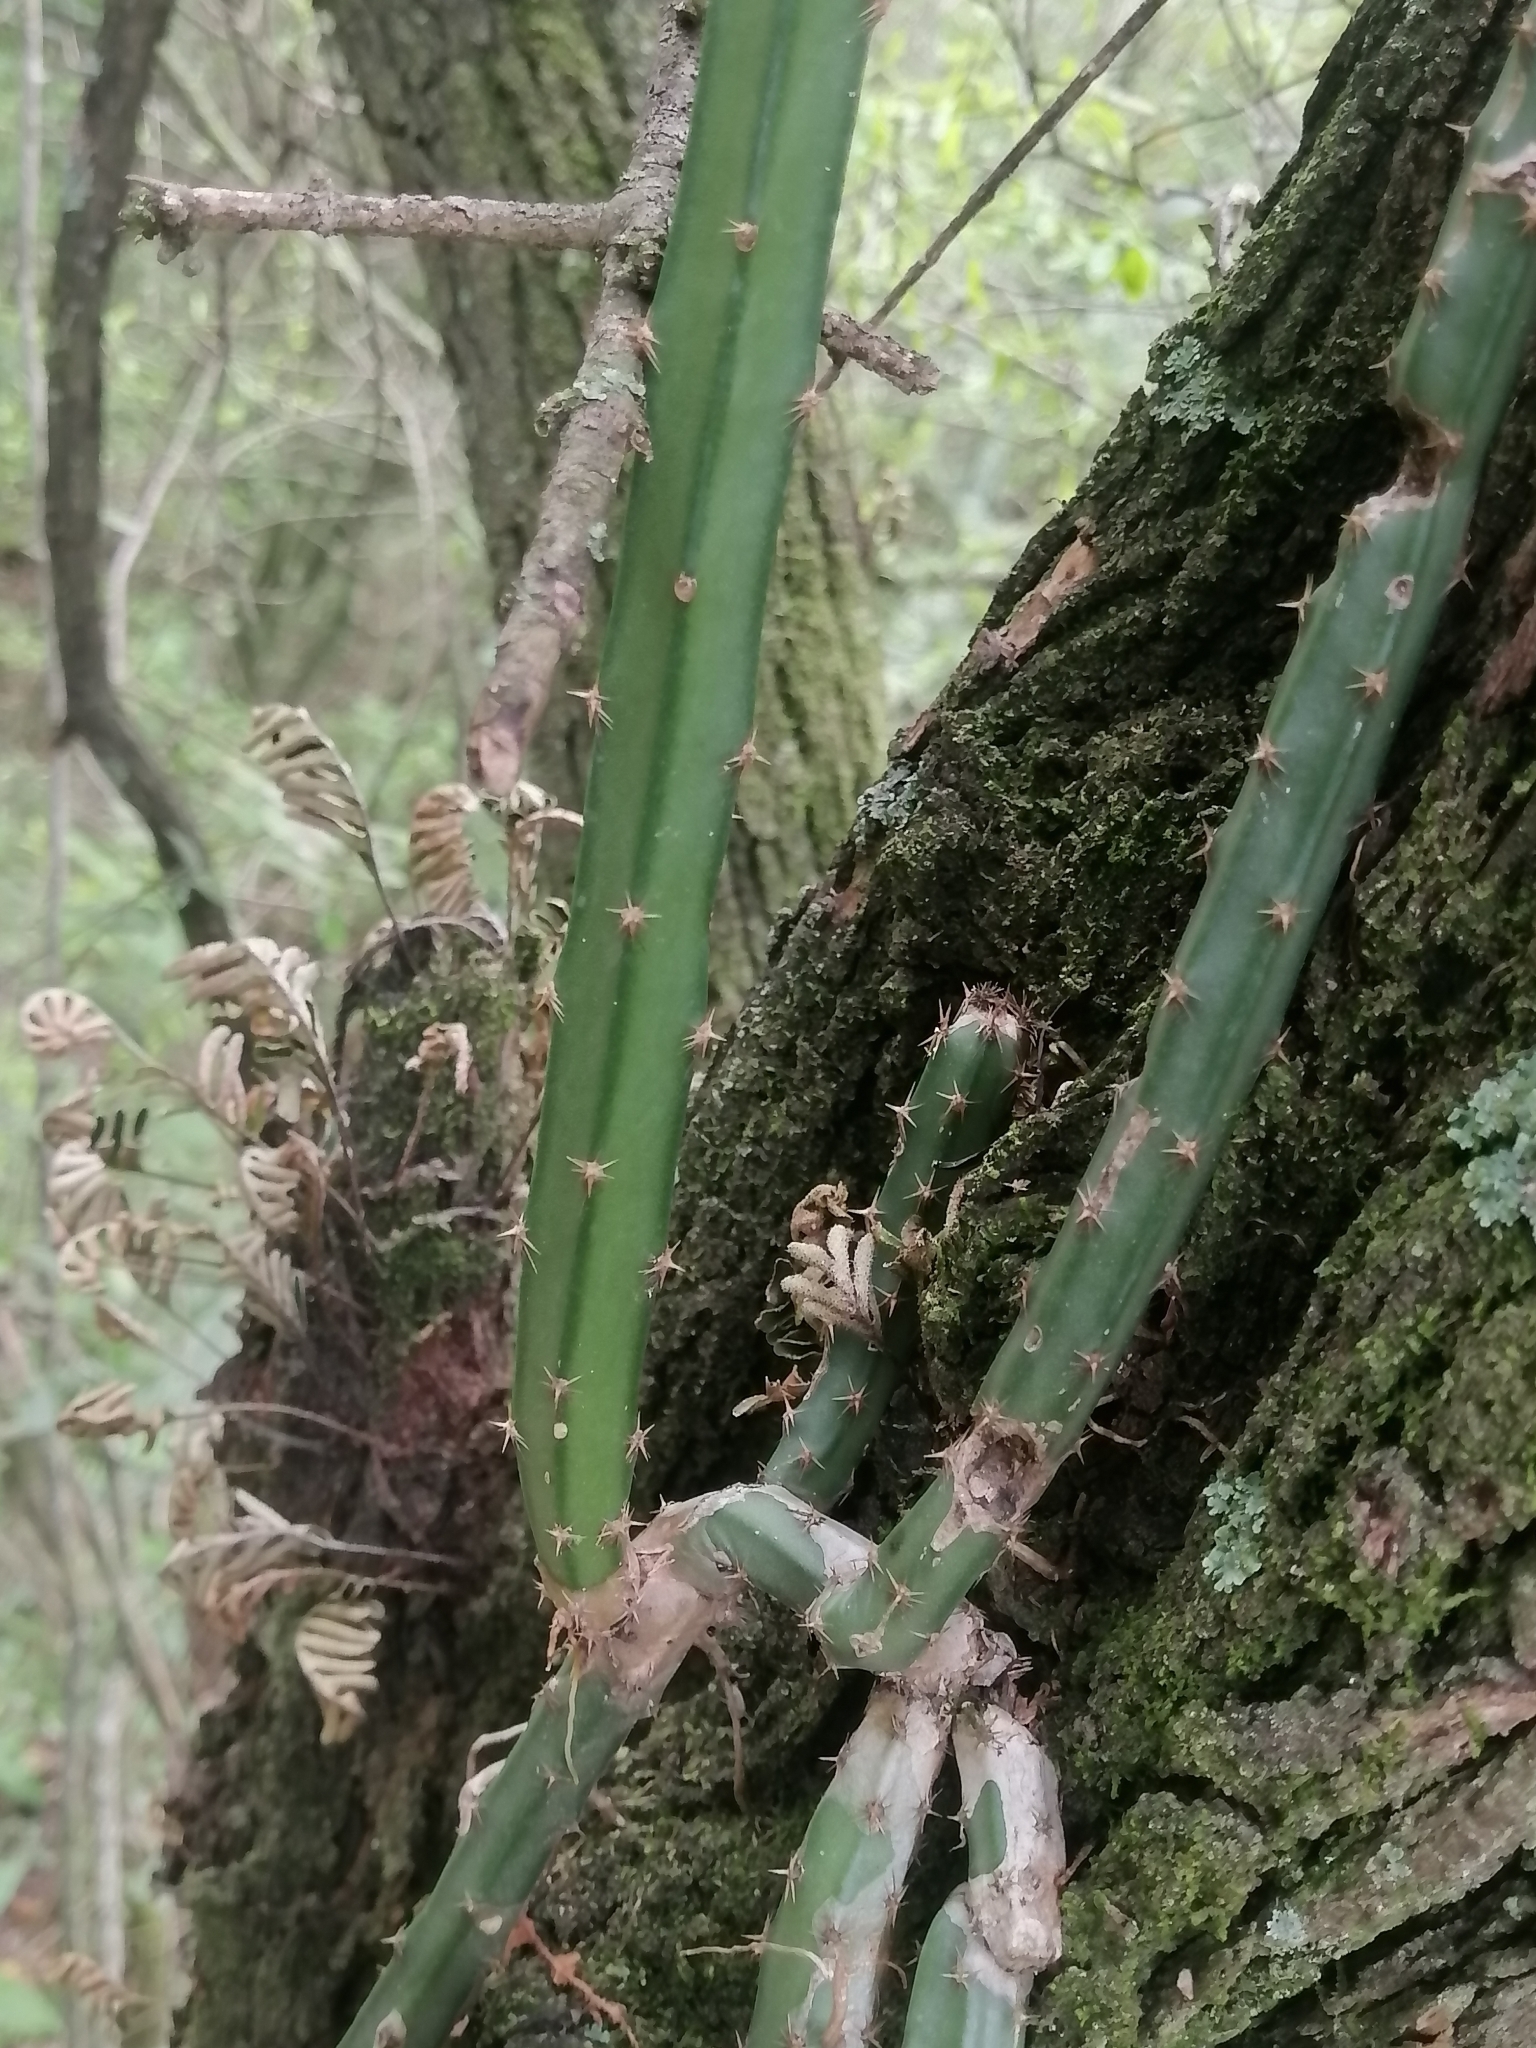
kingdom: Plantae
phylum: Tracheophyta
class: Magnoliopsida
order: Caryophyllales
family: Cactaceae
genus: Selenicereus
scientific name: Selenicereus spinulosus
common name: Nightblooming cereus
